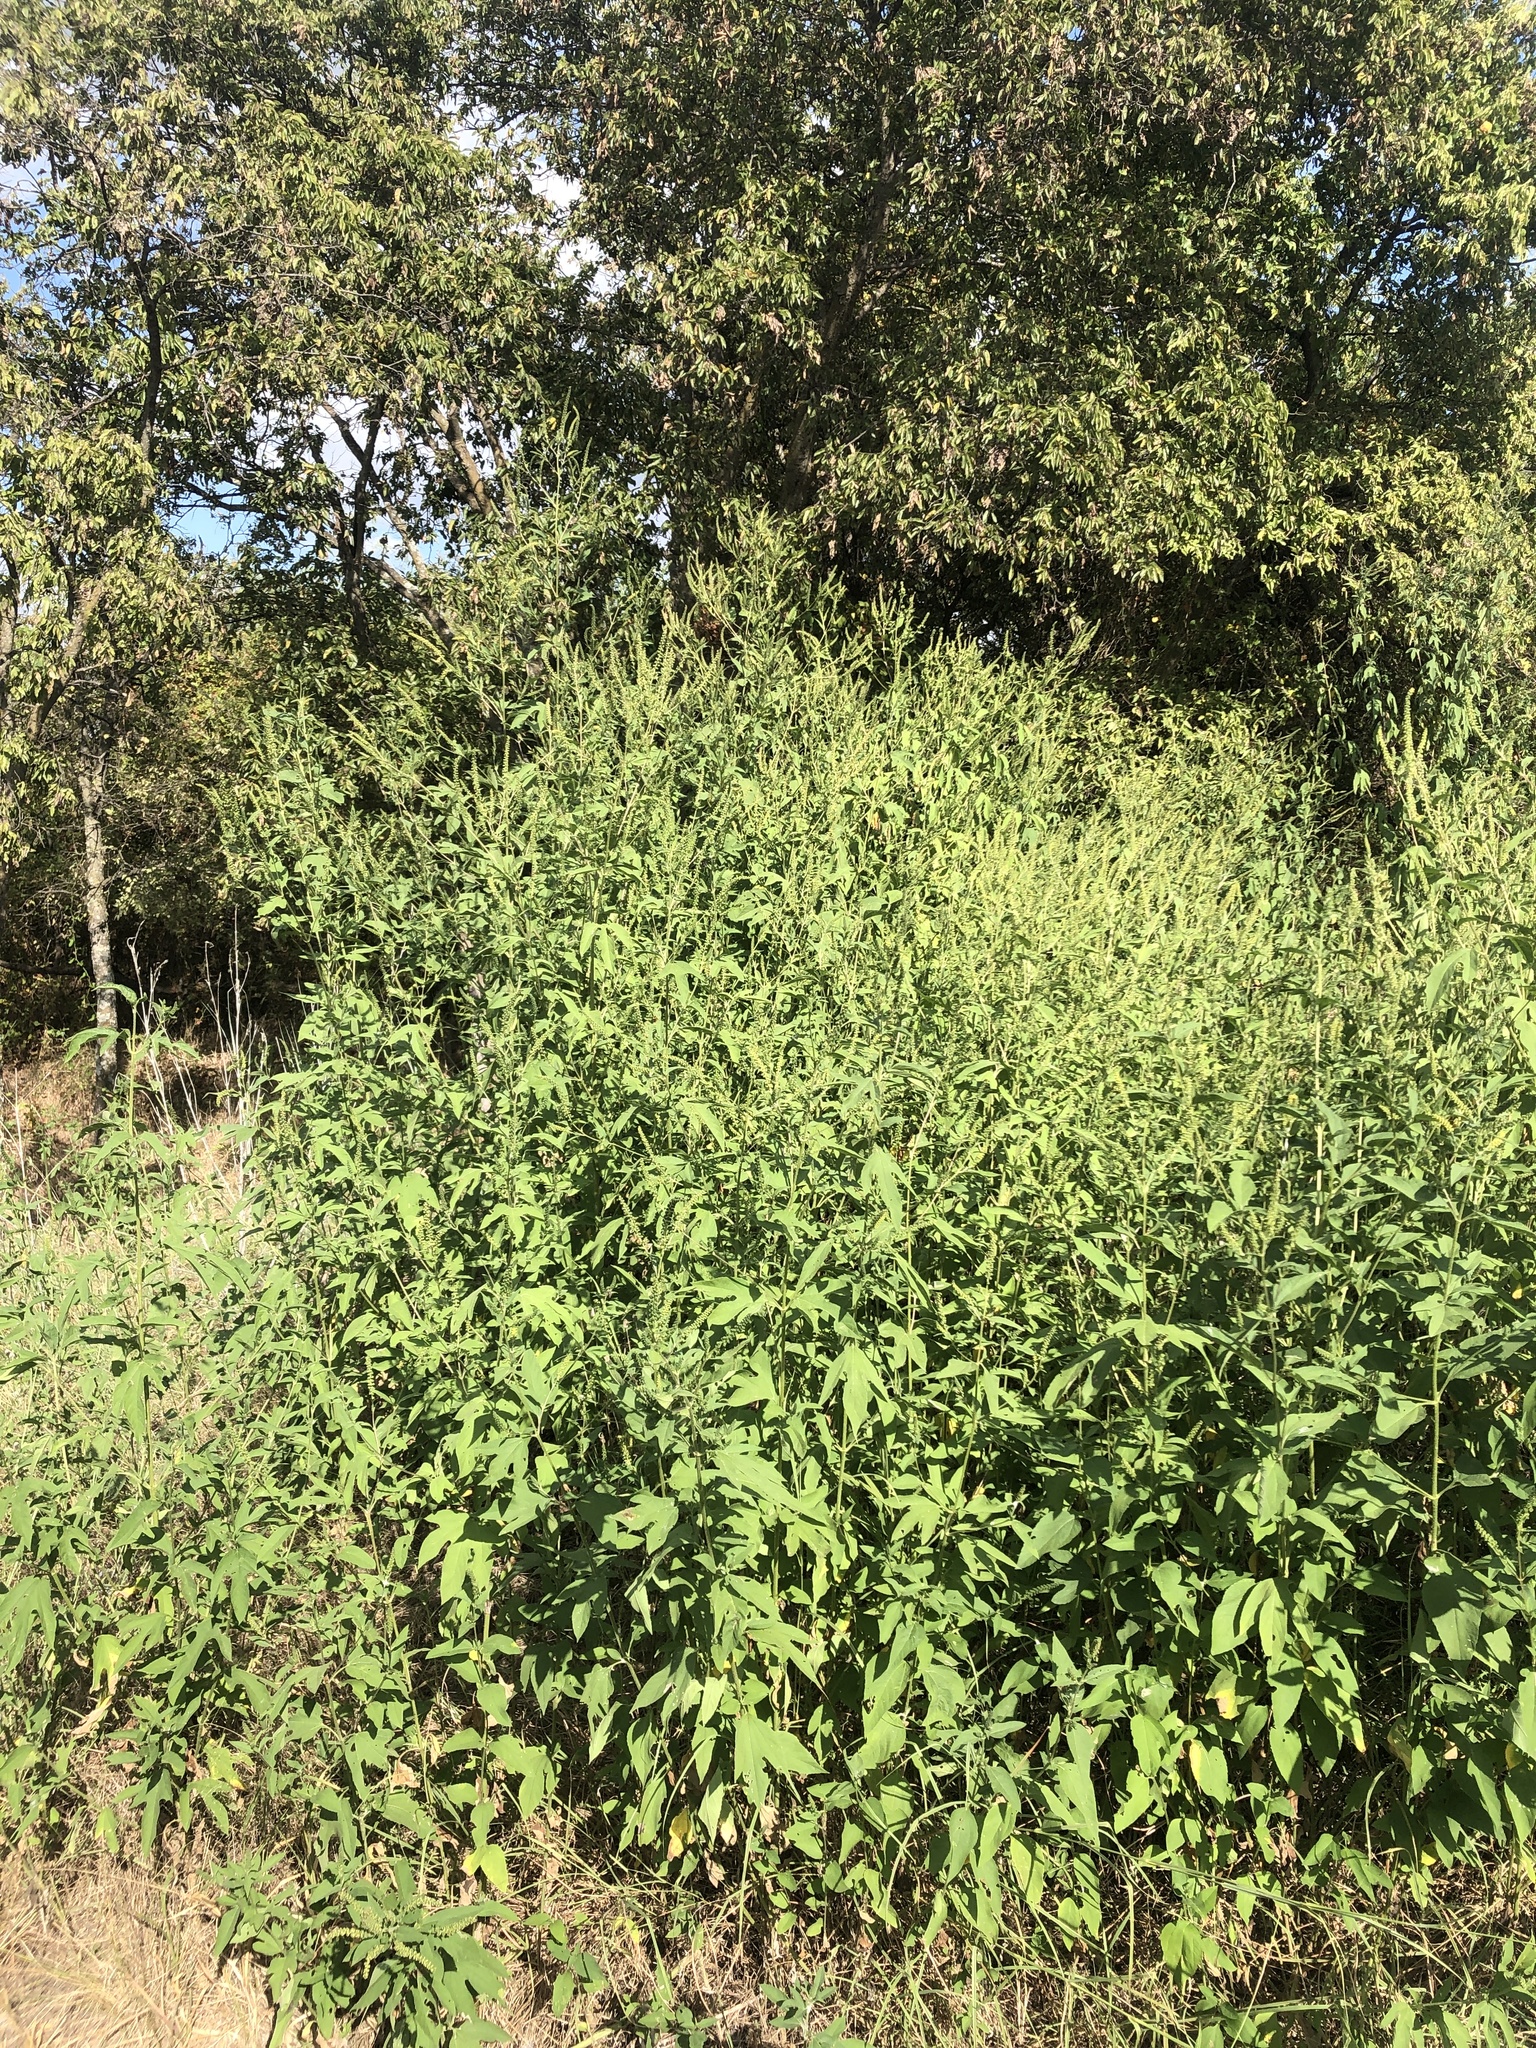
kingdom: Plantae
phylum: Tracheophyta
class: Magnoliopsida
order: Asterales
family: Asteraceae
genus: Ambrosia
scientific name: Ambrosia trifida
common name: Giant ragweed
